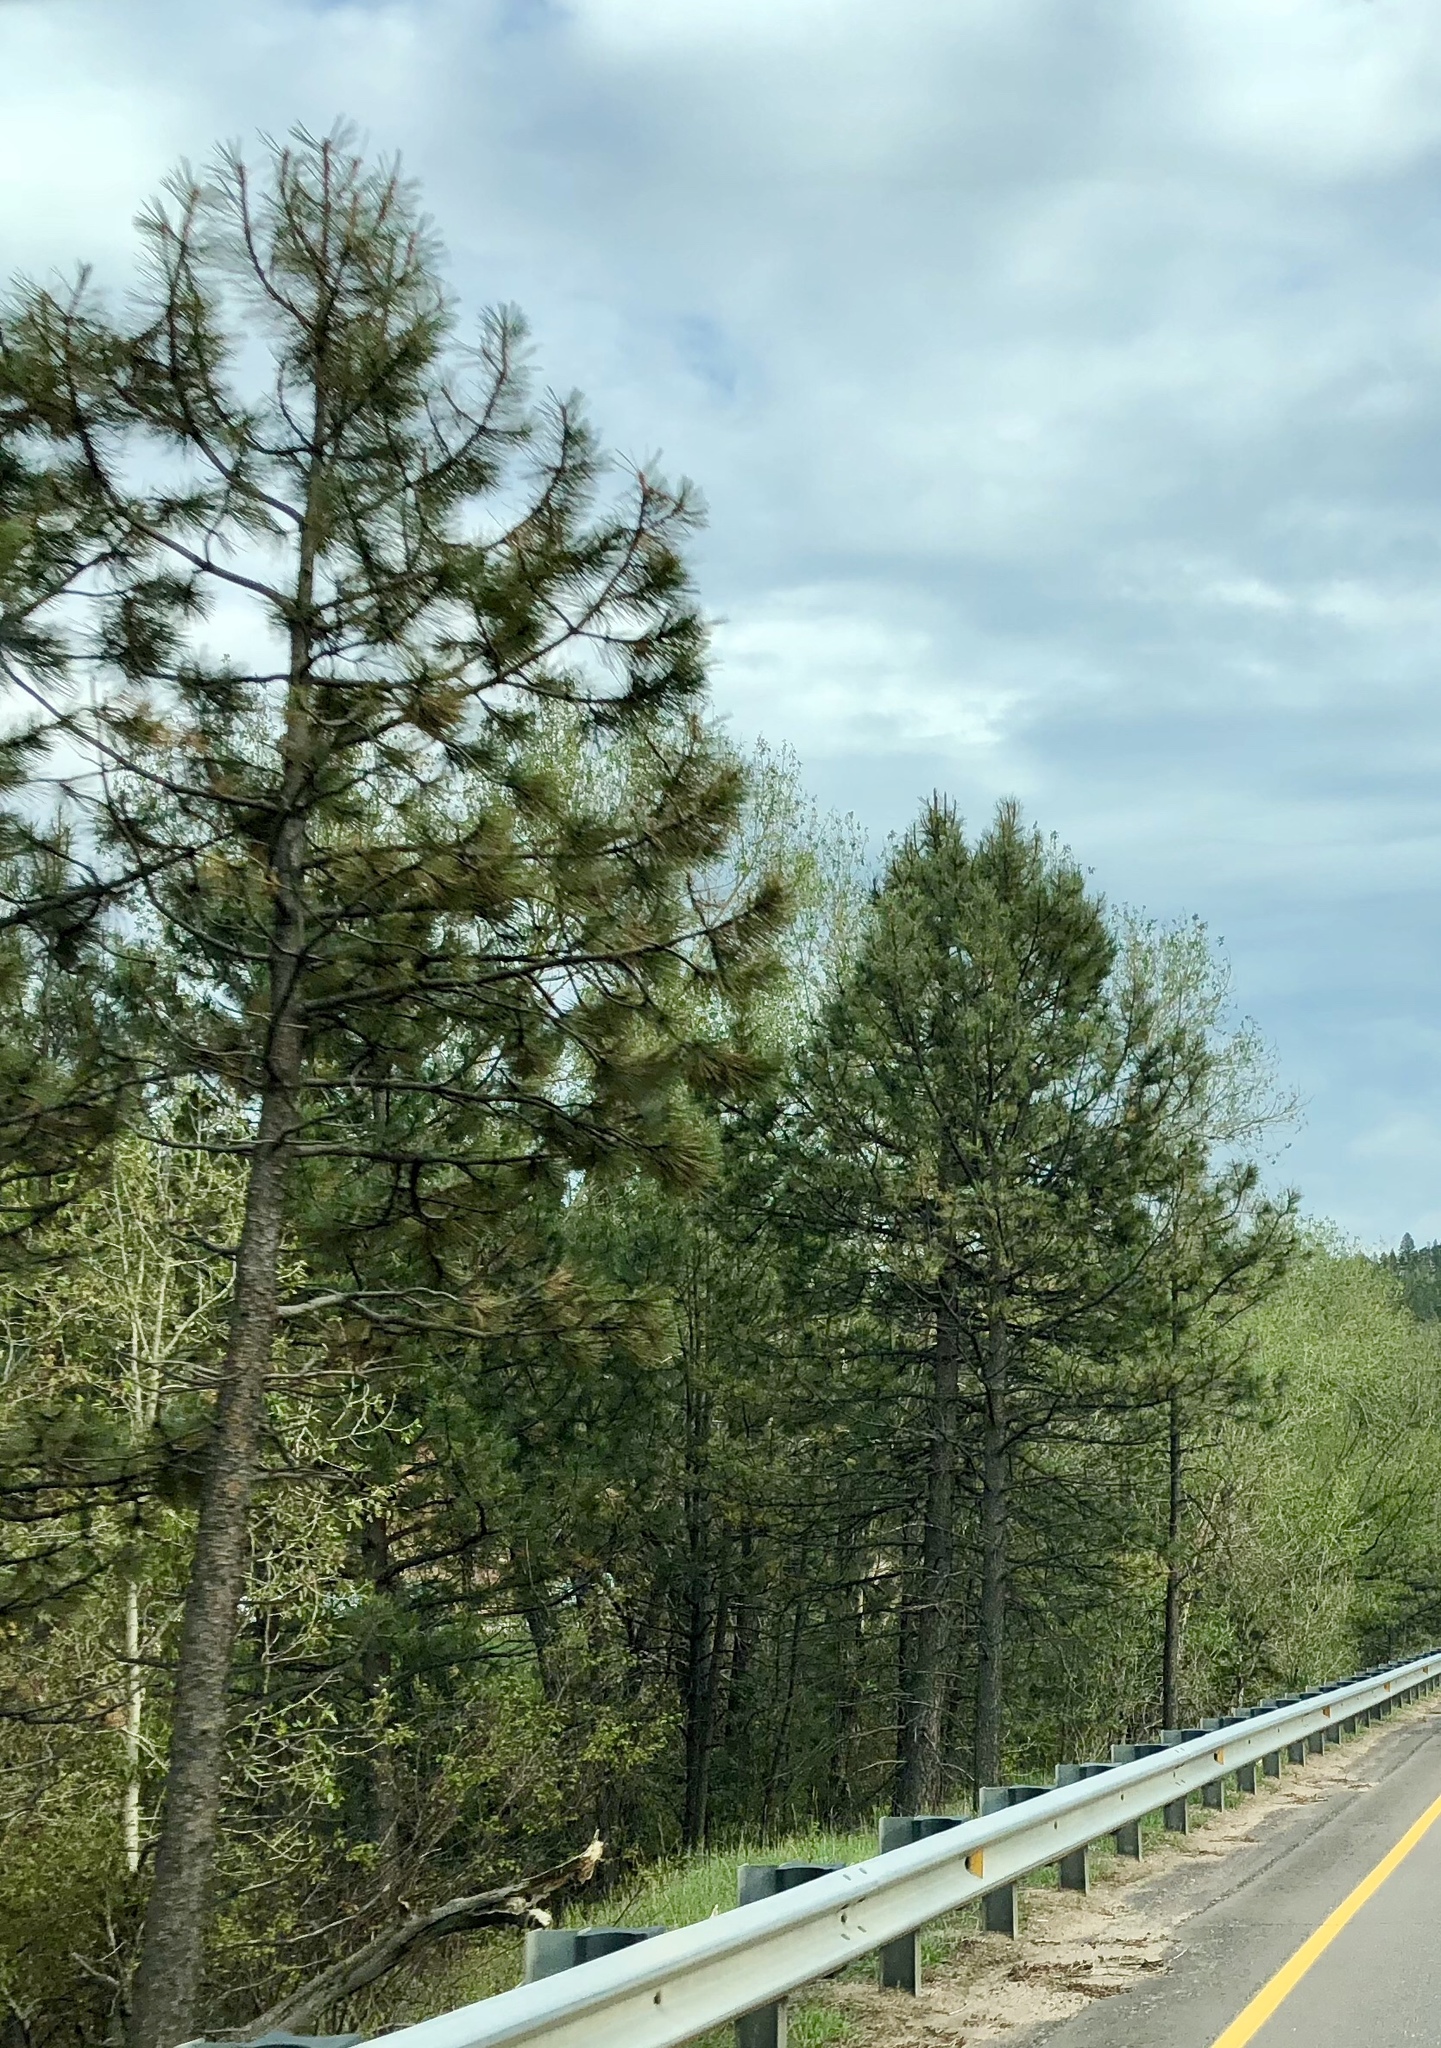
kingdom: Plantae
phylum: Tracheophyta
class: Pinopsida
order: Pinales
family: Pinaceae
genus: Pinus
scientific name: Pinus ponderosa
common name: Western yellow-pine
